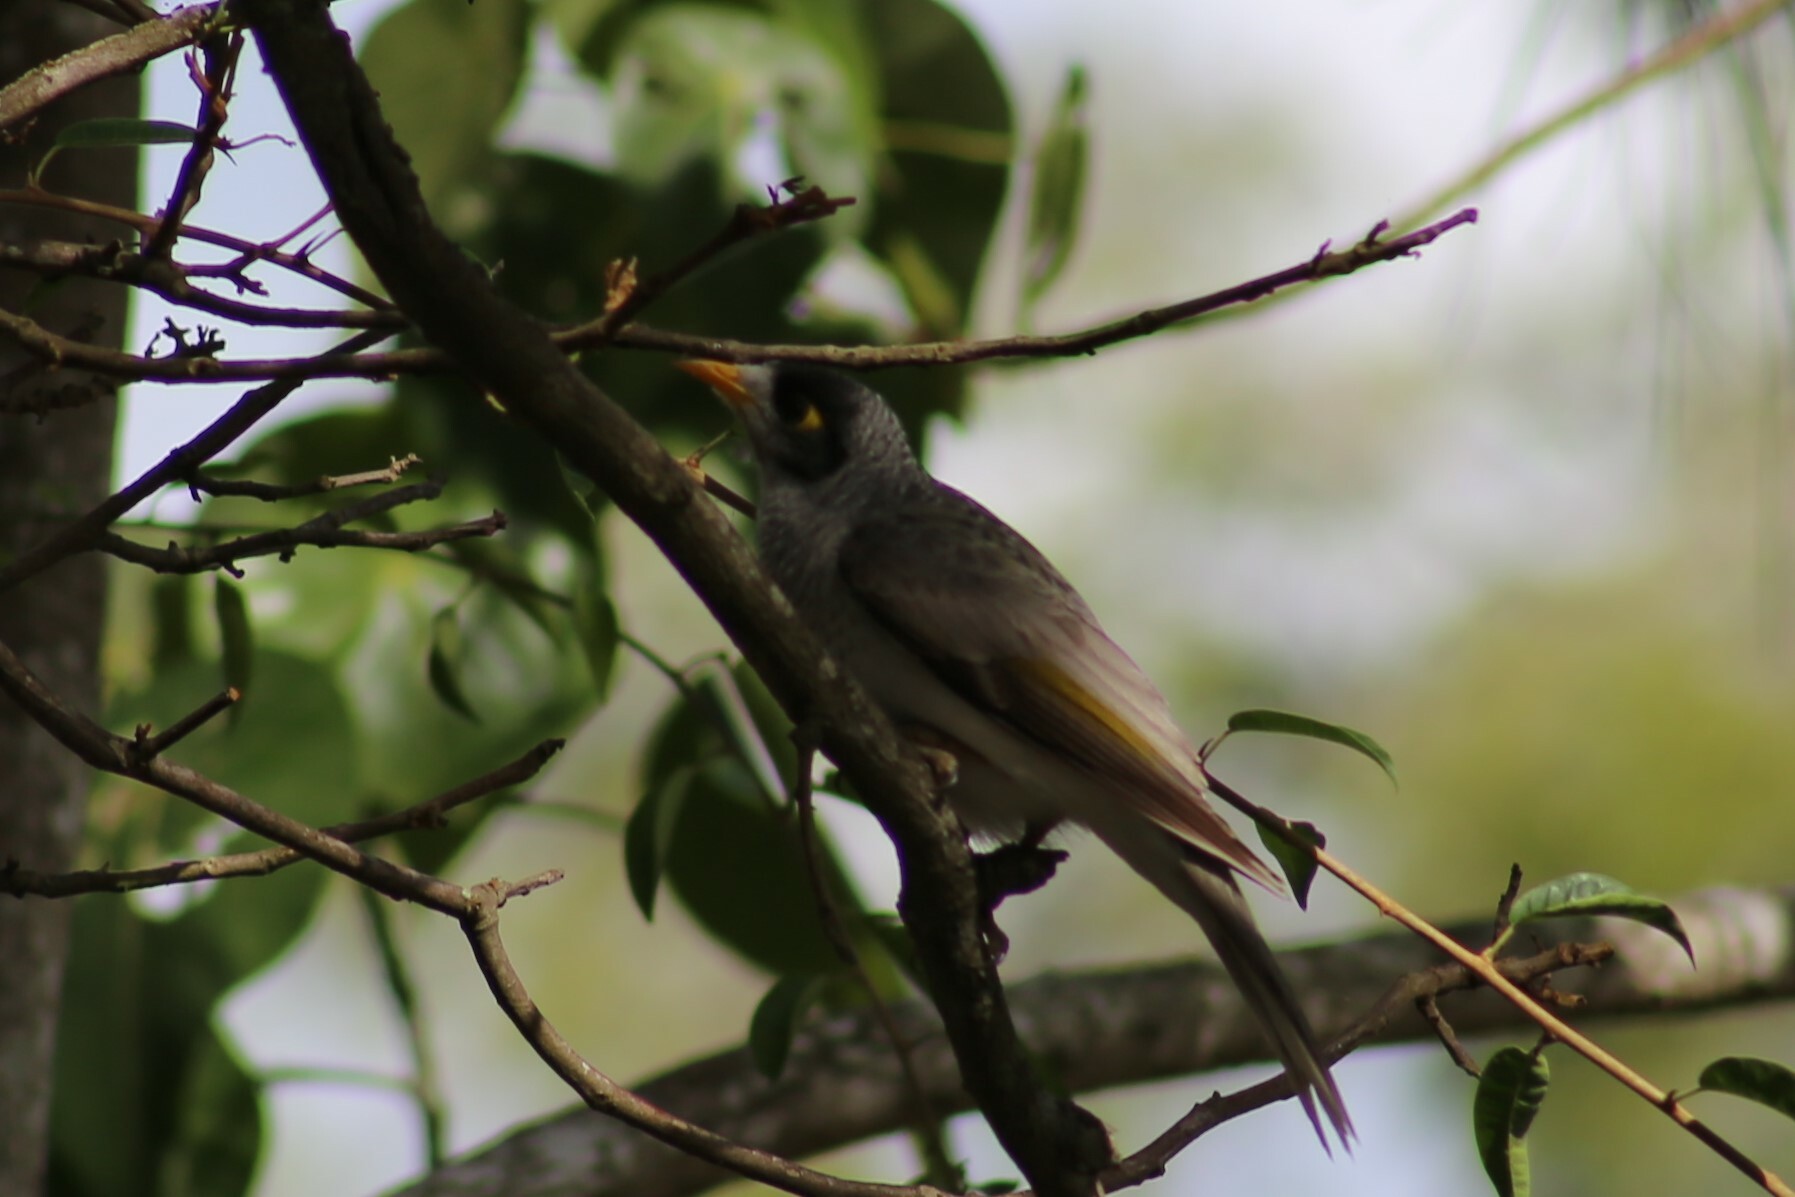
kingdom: Animalia
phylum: Chordata
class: Aves
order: Passeriformes
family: Meliphagidae
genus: Manorina
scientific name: Manorina melanocephala
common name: Noisy miner
